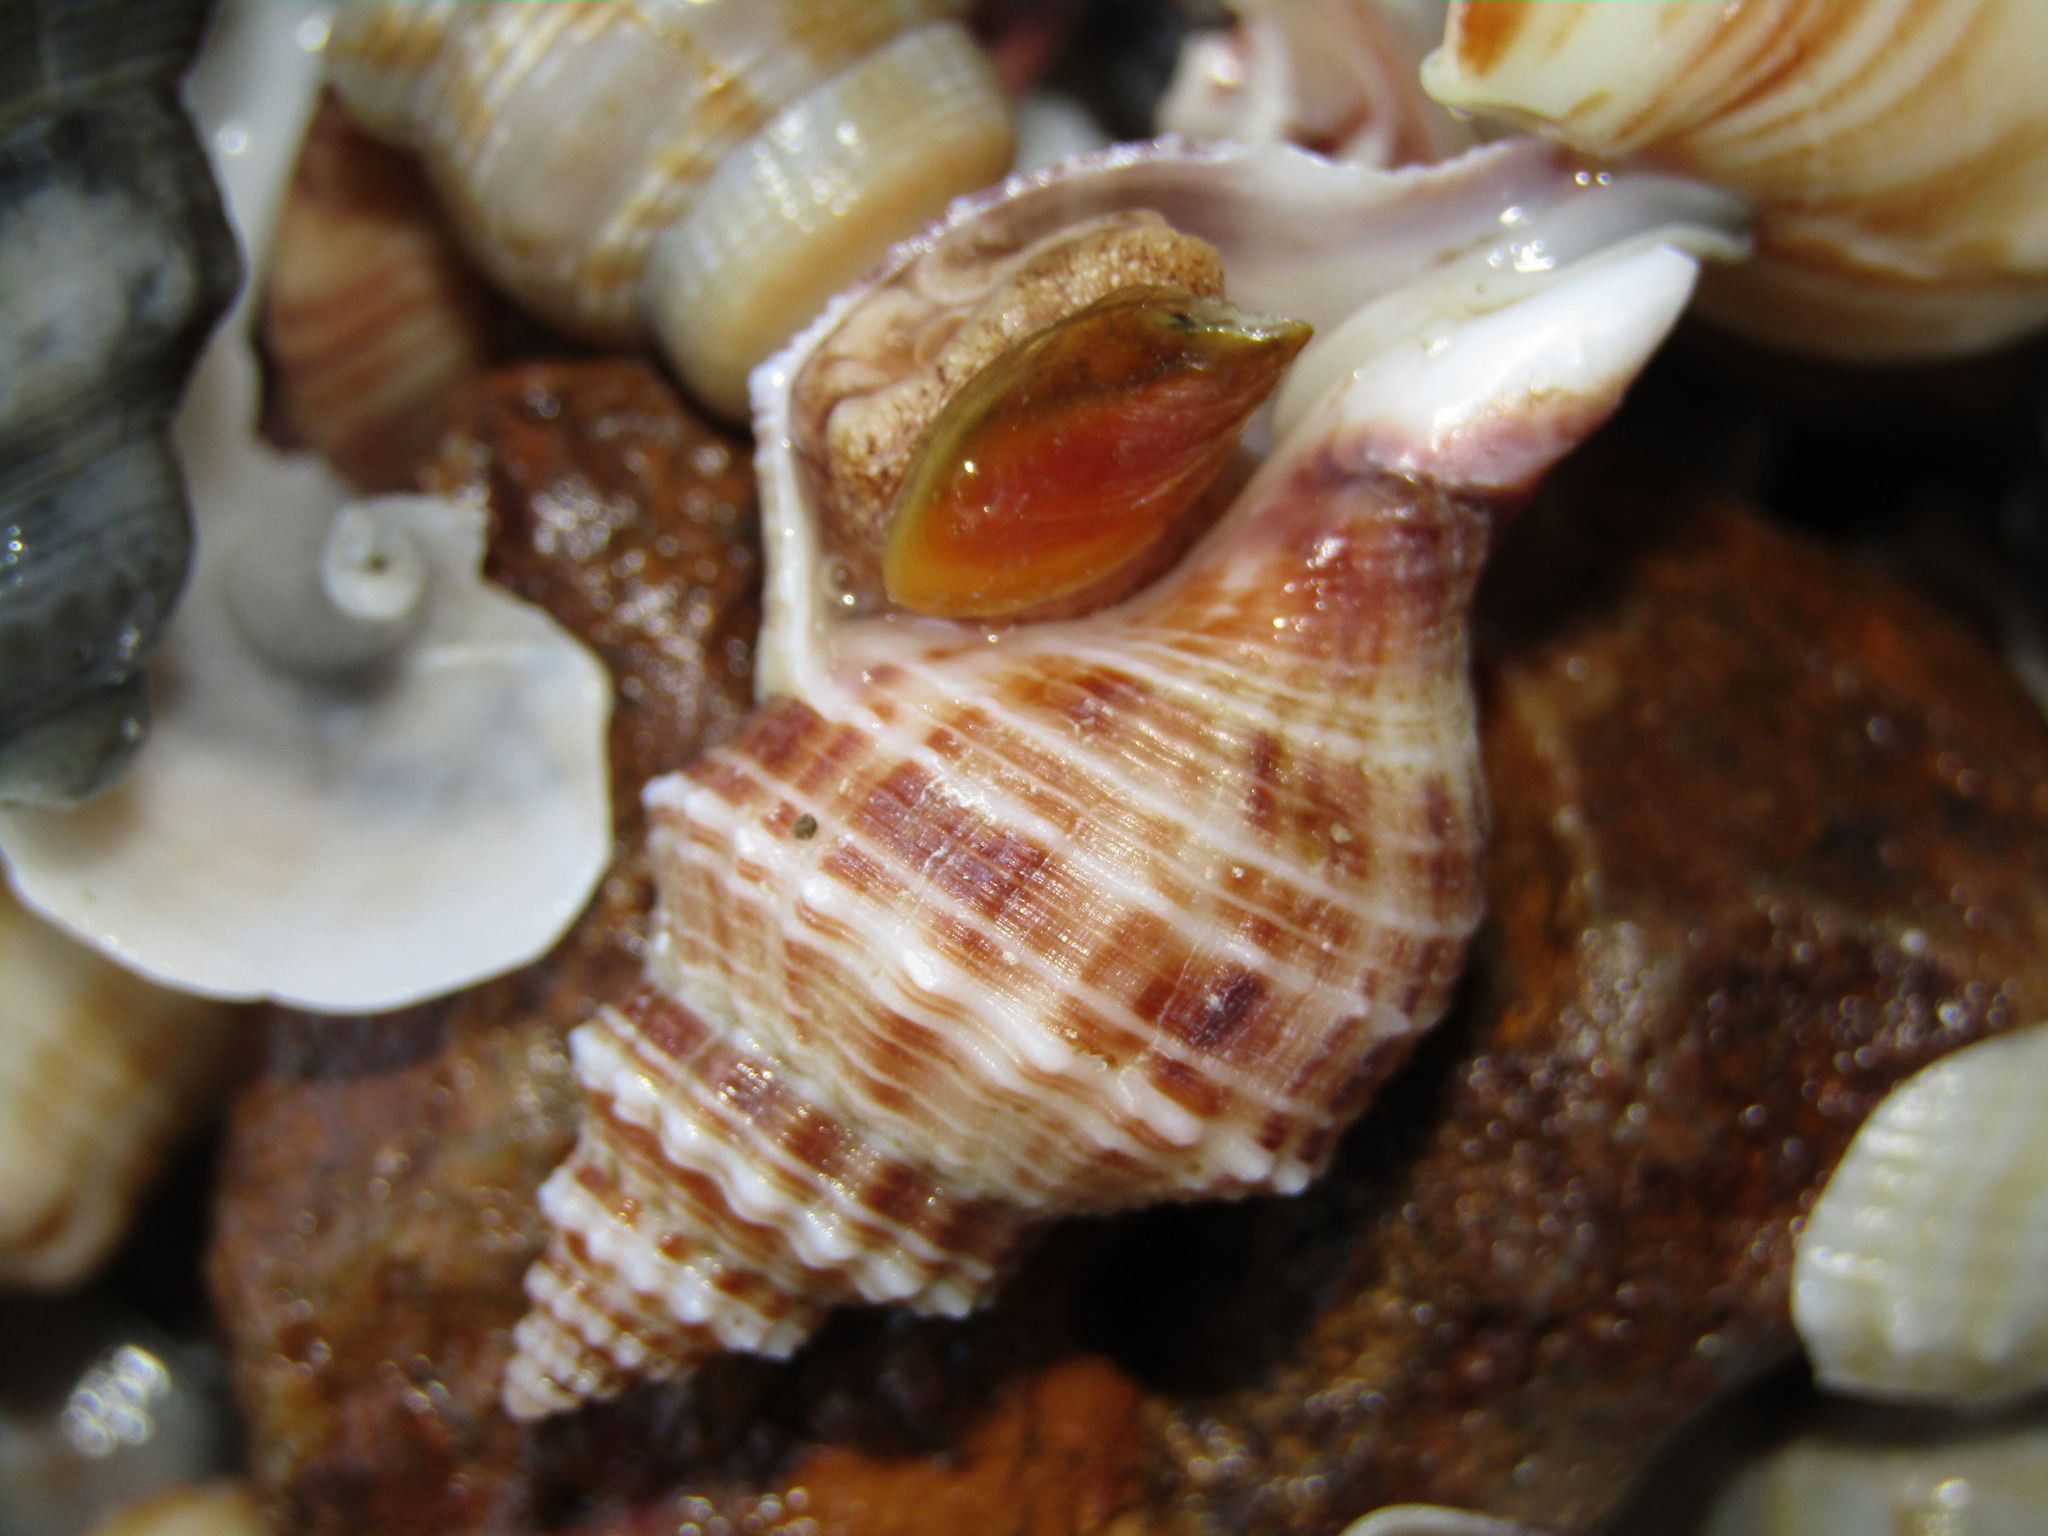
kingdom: Animalia
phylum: Mollusca
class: Gastropoda
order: Neogastropoda
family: Prosiphonidae
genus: Austrofusus
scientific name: Austrofusus glans
